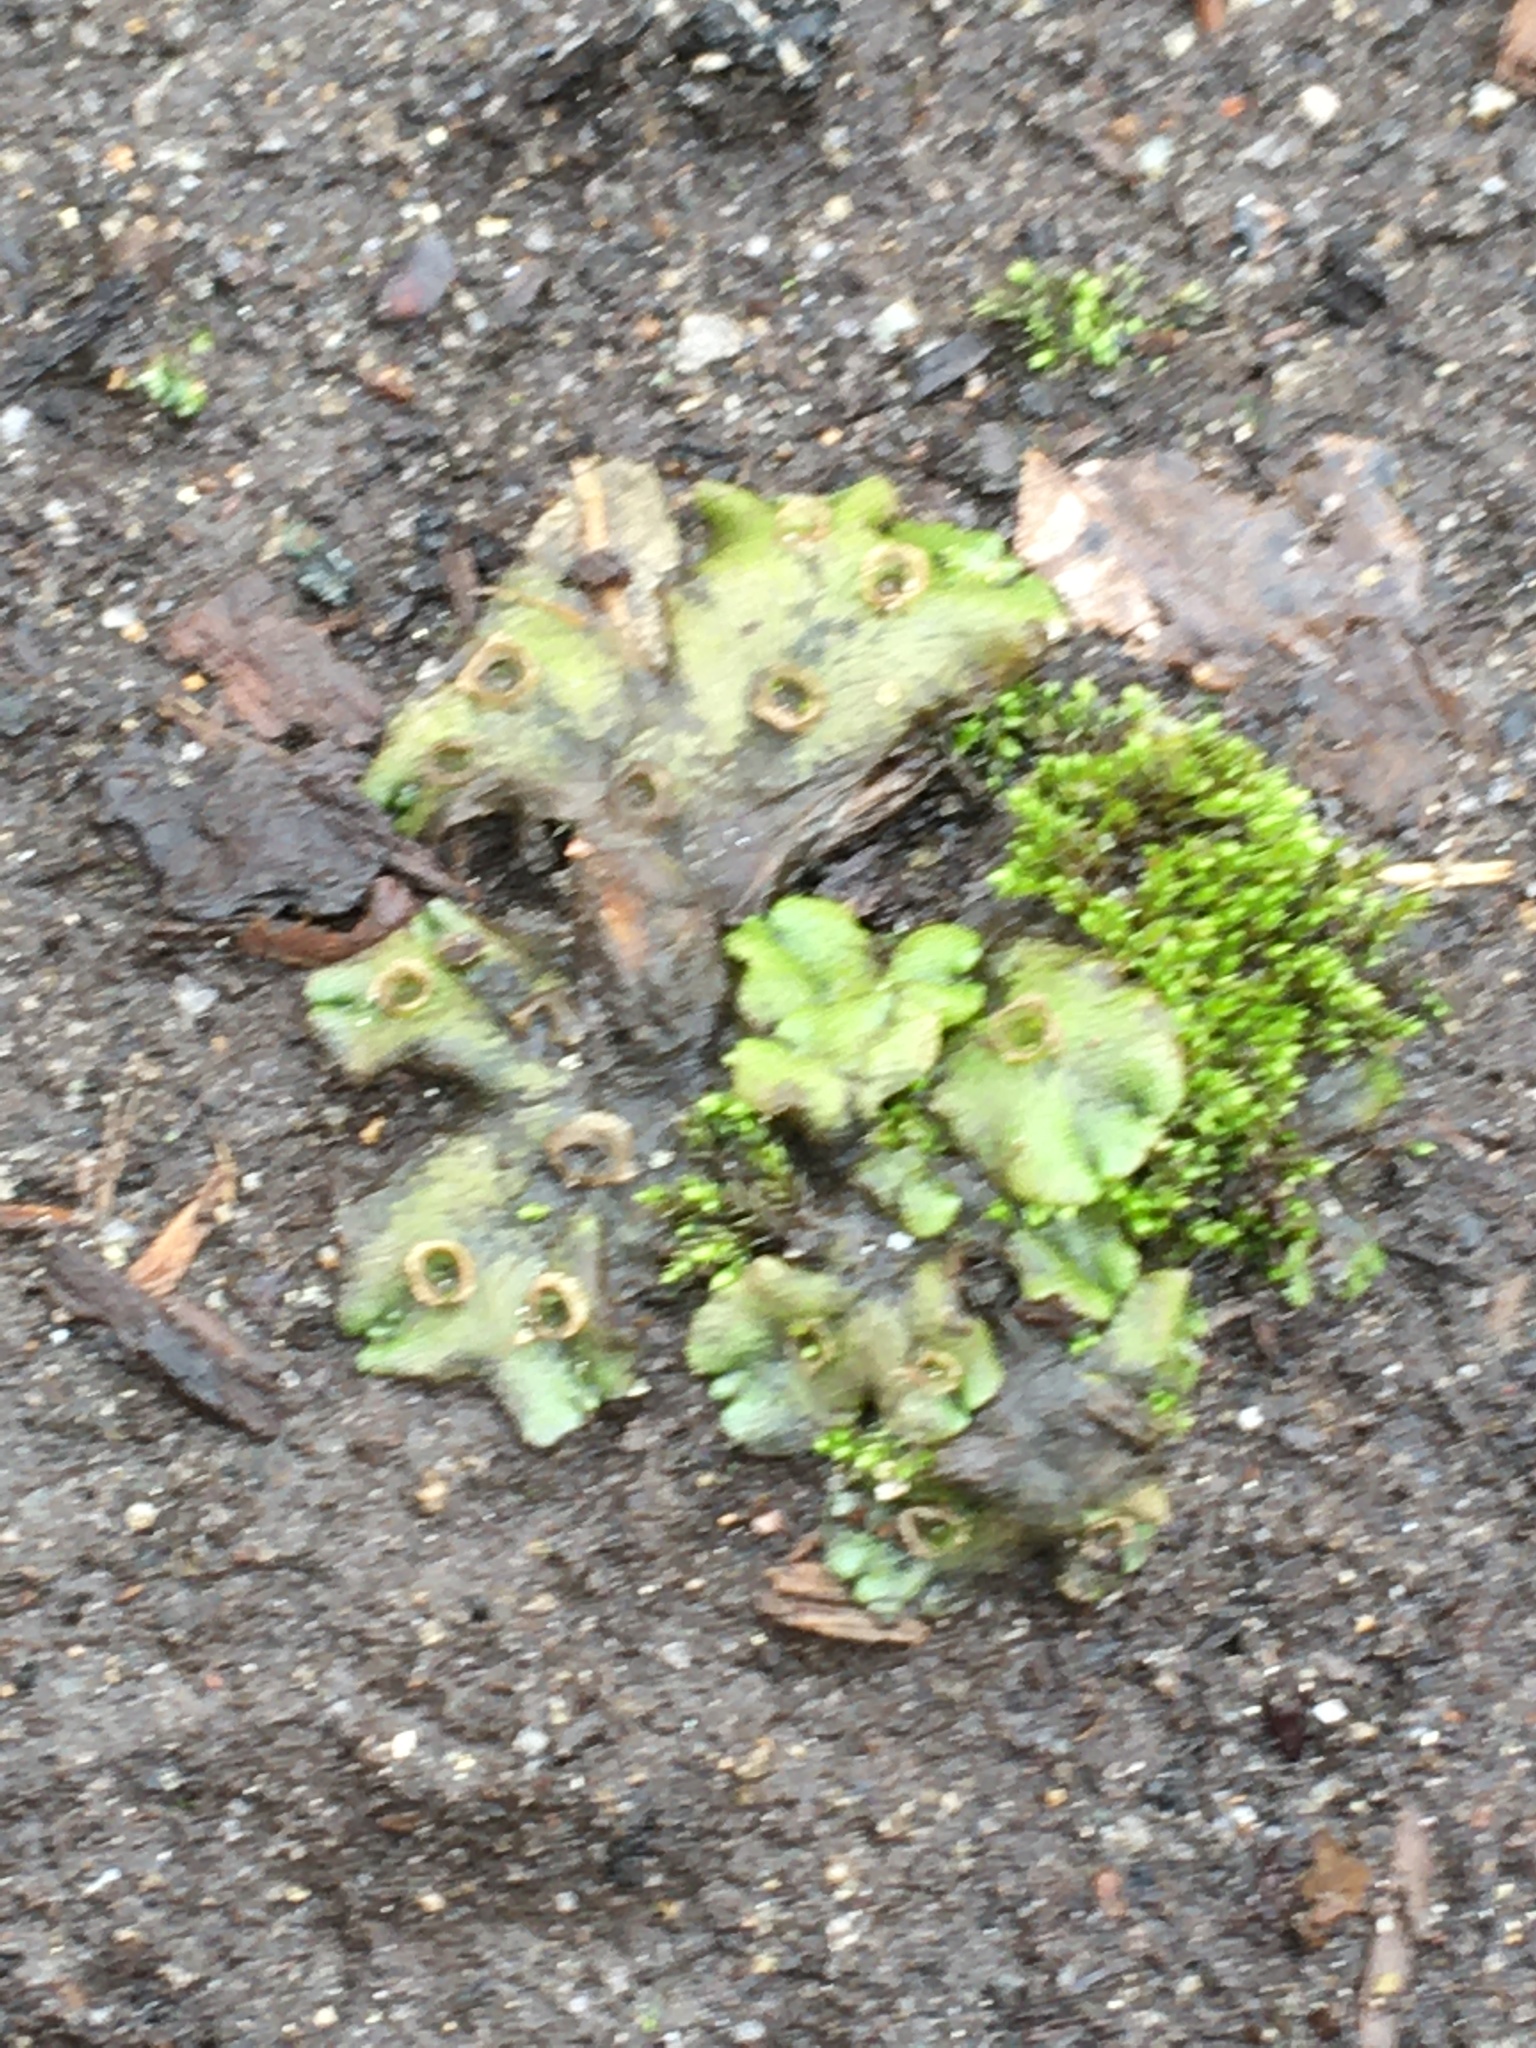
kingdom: Plantae
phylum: Marchantiophyta
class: Marchantiopsida
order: Marchantiales
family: Marchantiaceae
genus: Marchantia
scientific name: Marchantia polymorpha
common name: Common liverwort
